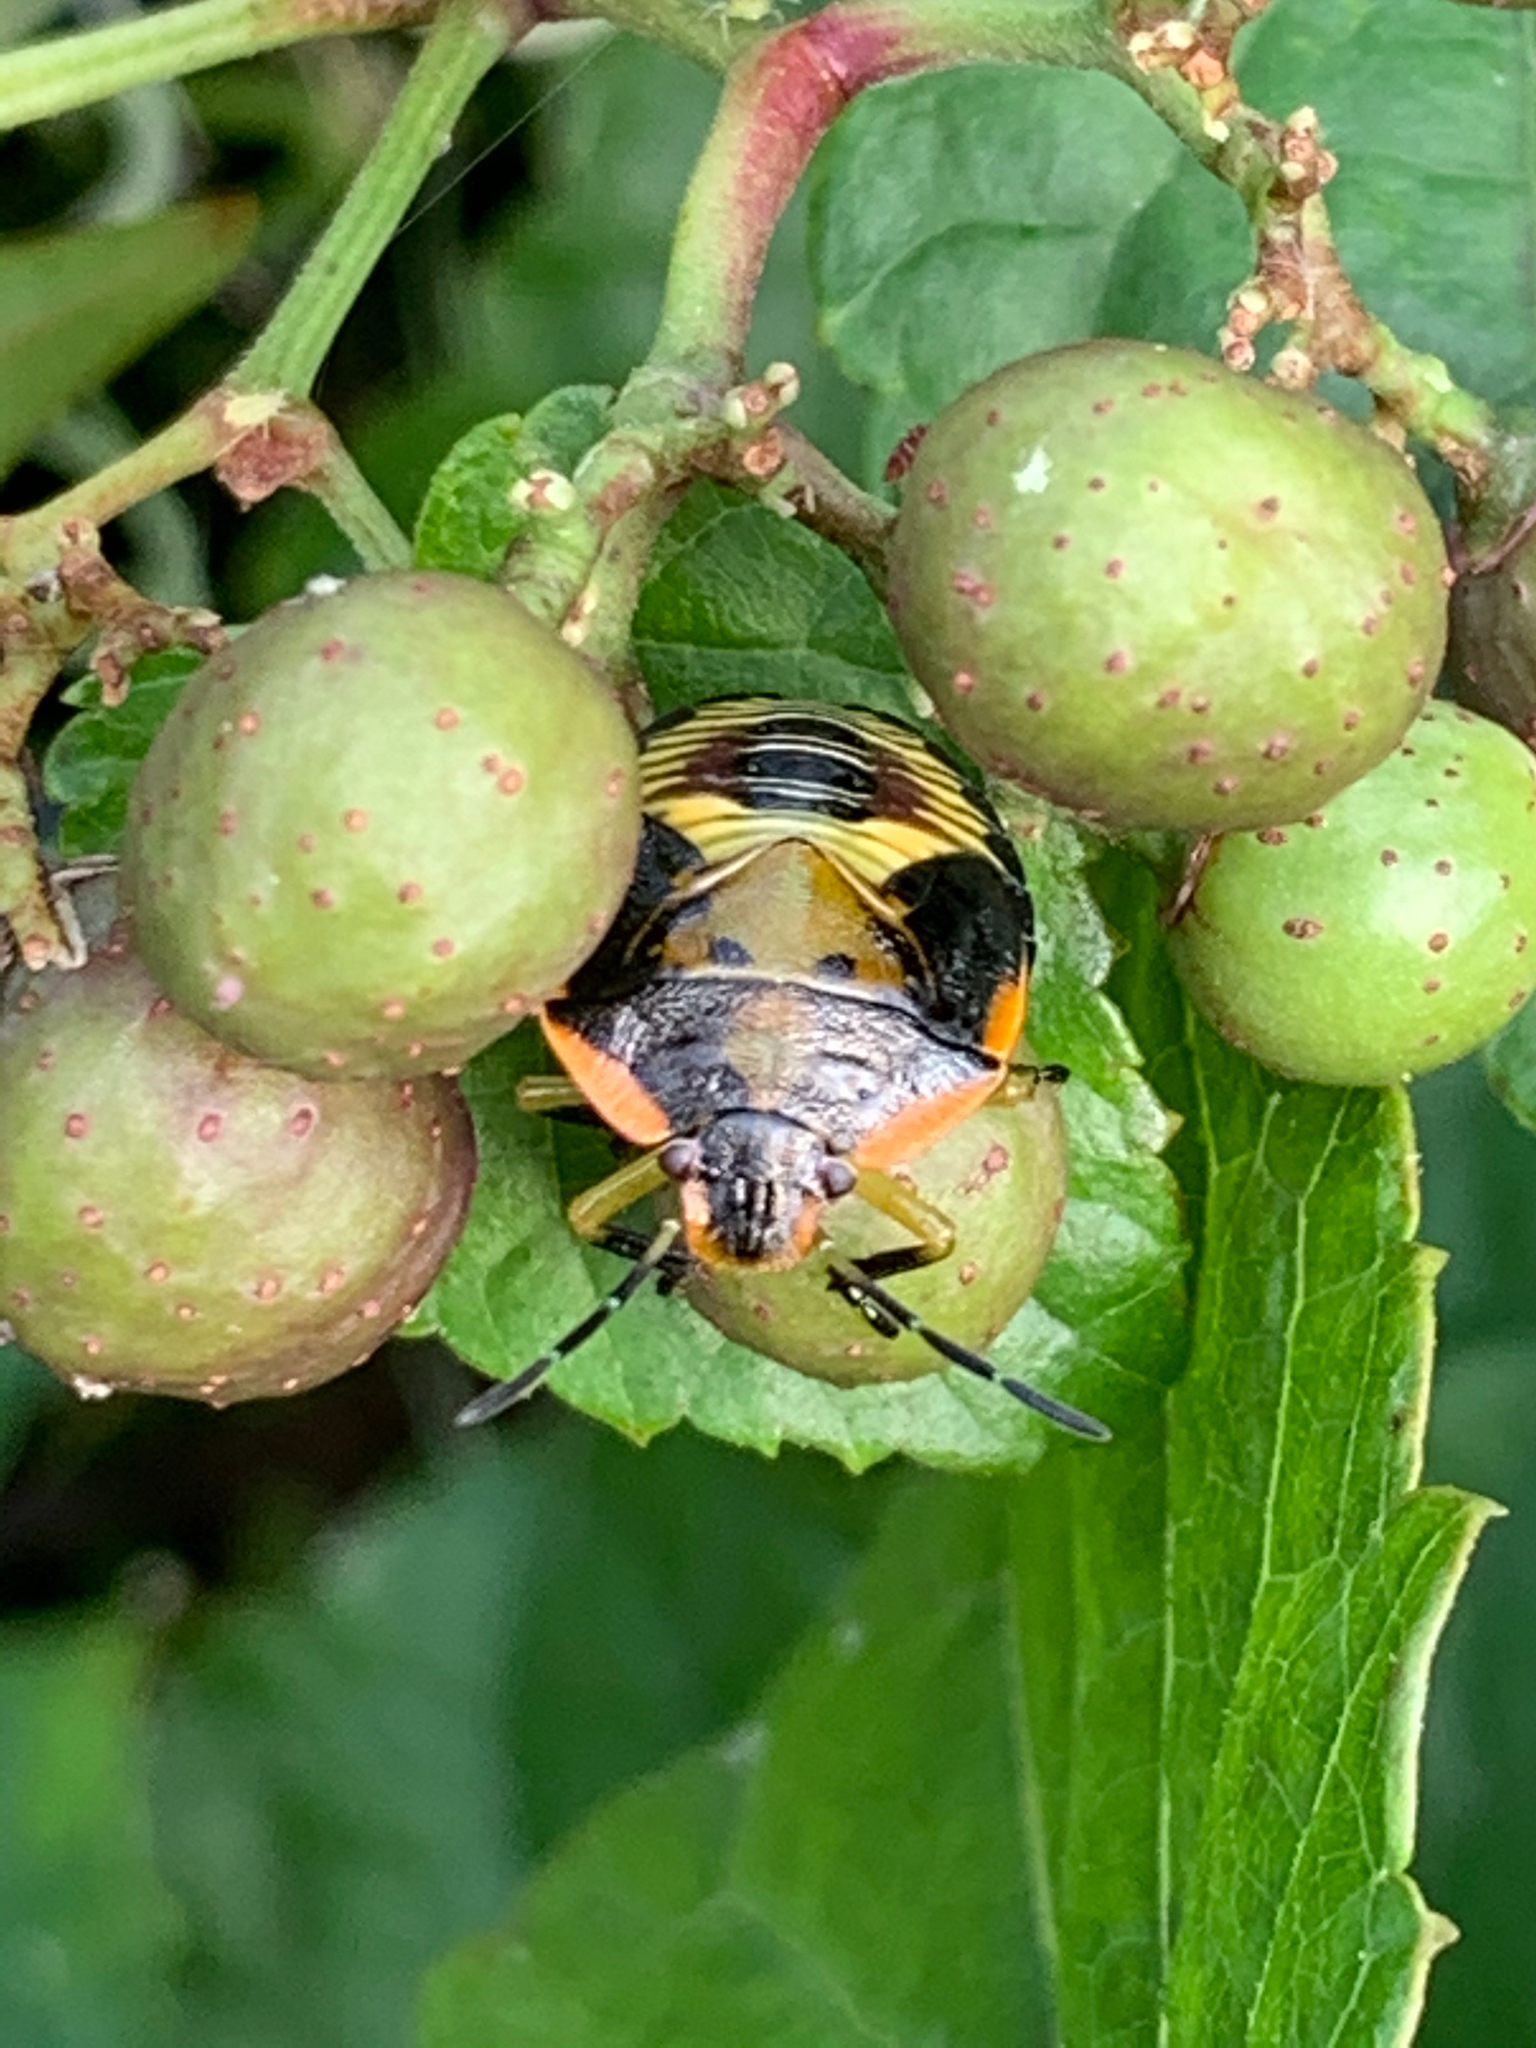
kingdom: Animalia
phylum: Arthropoda
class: Insecta
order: Hemiptera
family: Pentatomidae
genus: Chinavia
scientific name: Chinavia hilaris
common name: Green stink bug
